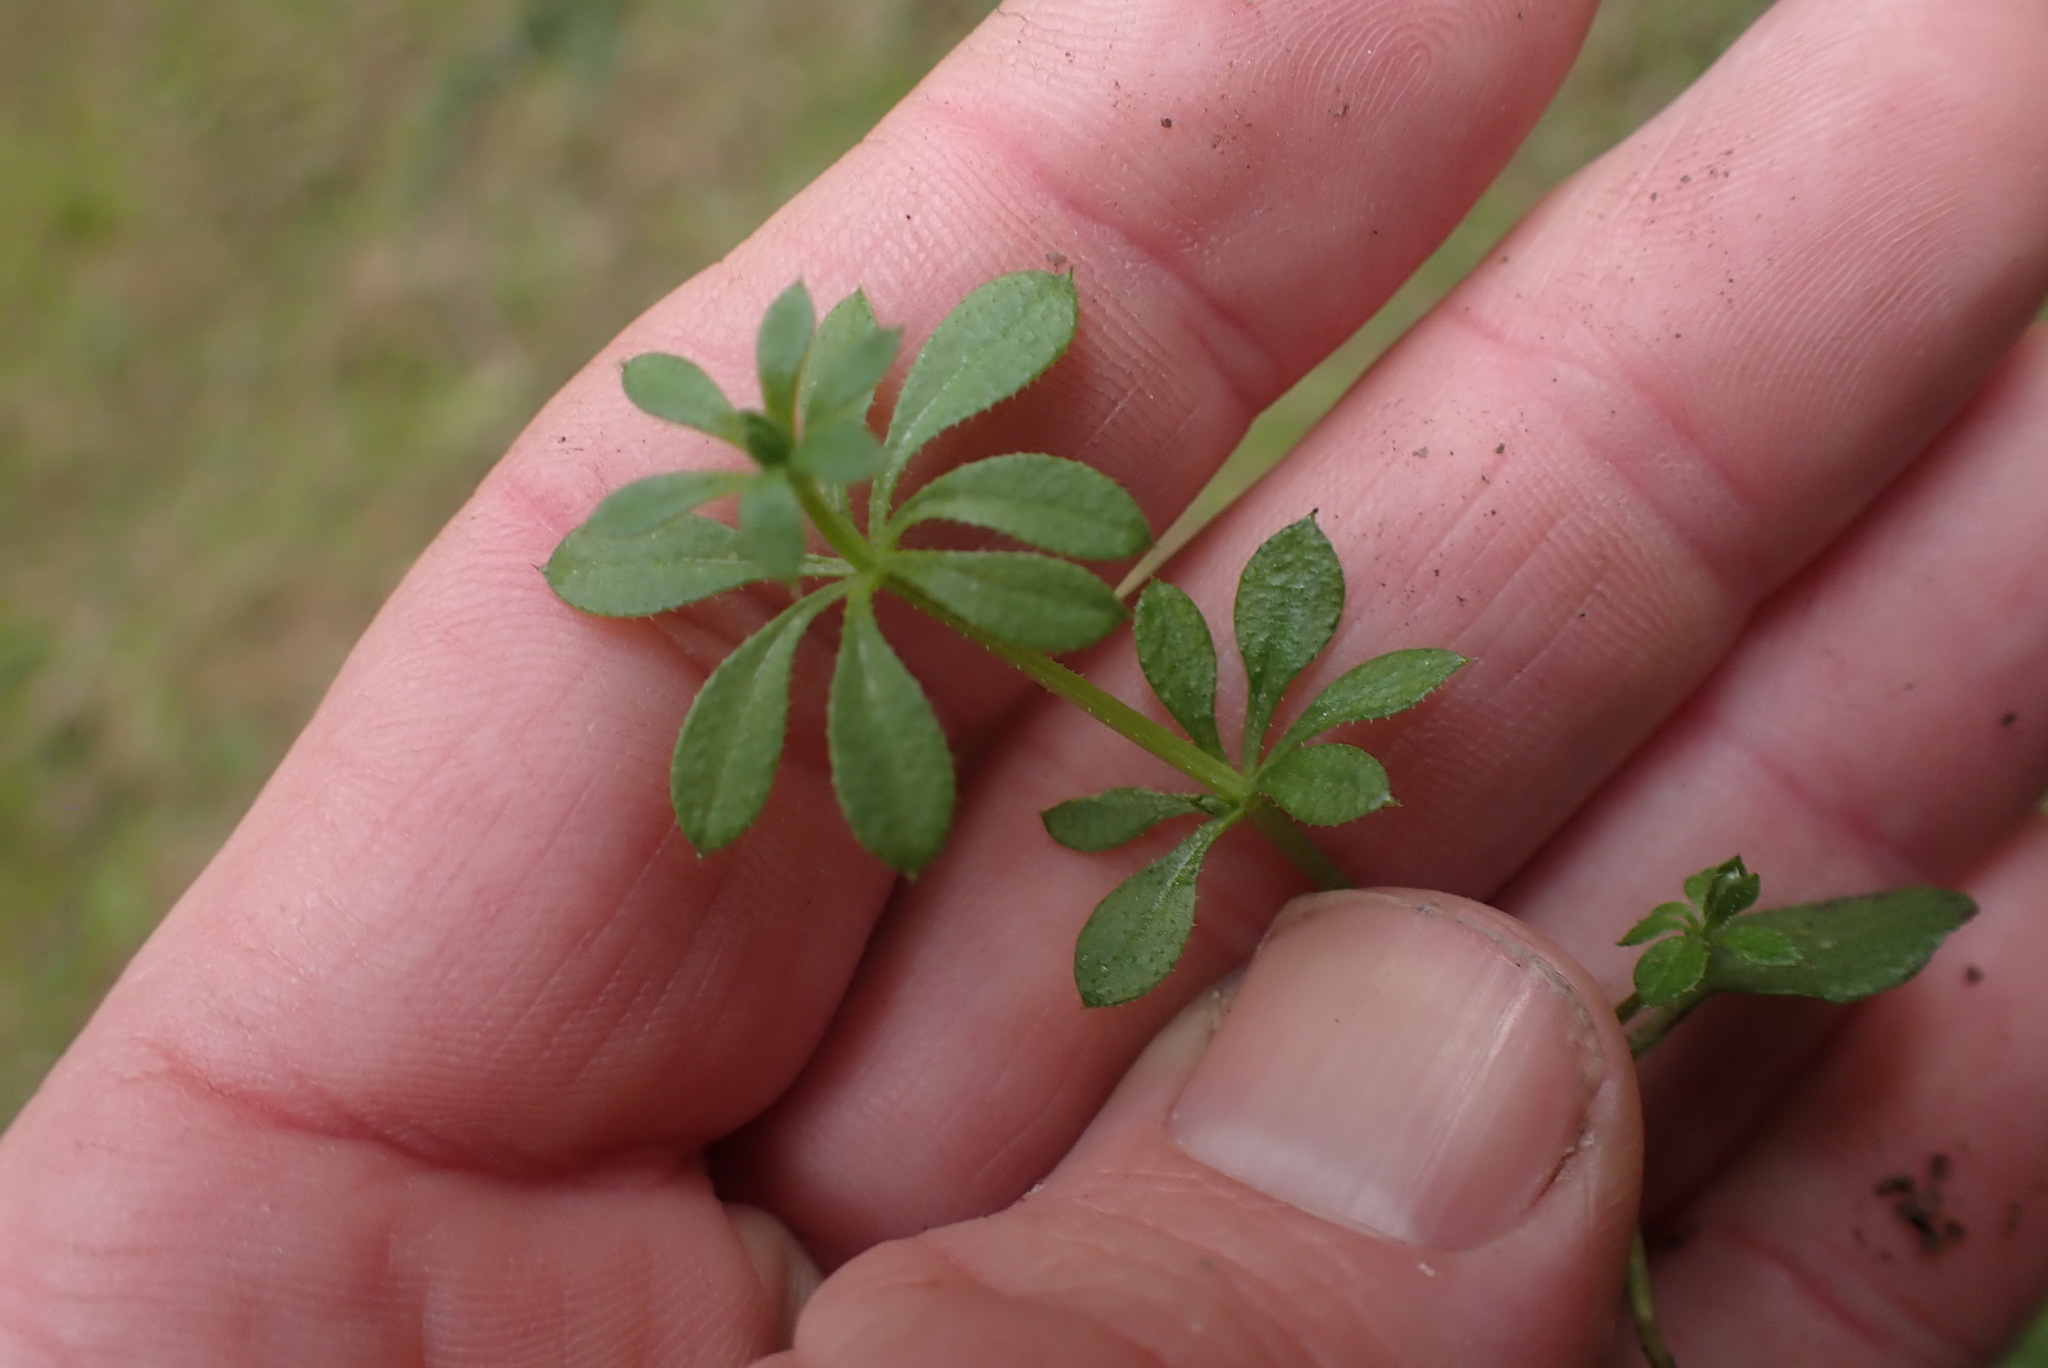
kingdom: Plantae
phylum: Tracheophyta
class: Magnoliopsida
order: Gentianales
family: Rubiaceae
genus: Galium
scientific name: Galium aparine
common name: Cleavers
